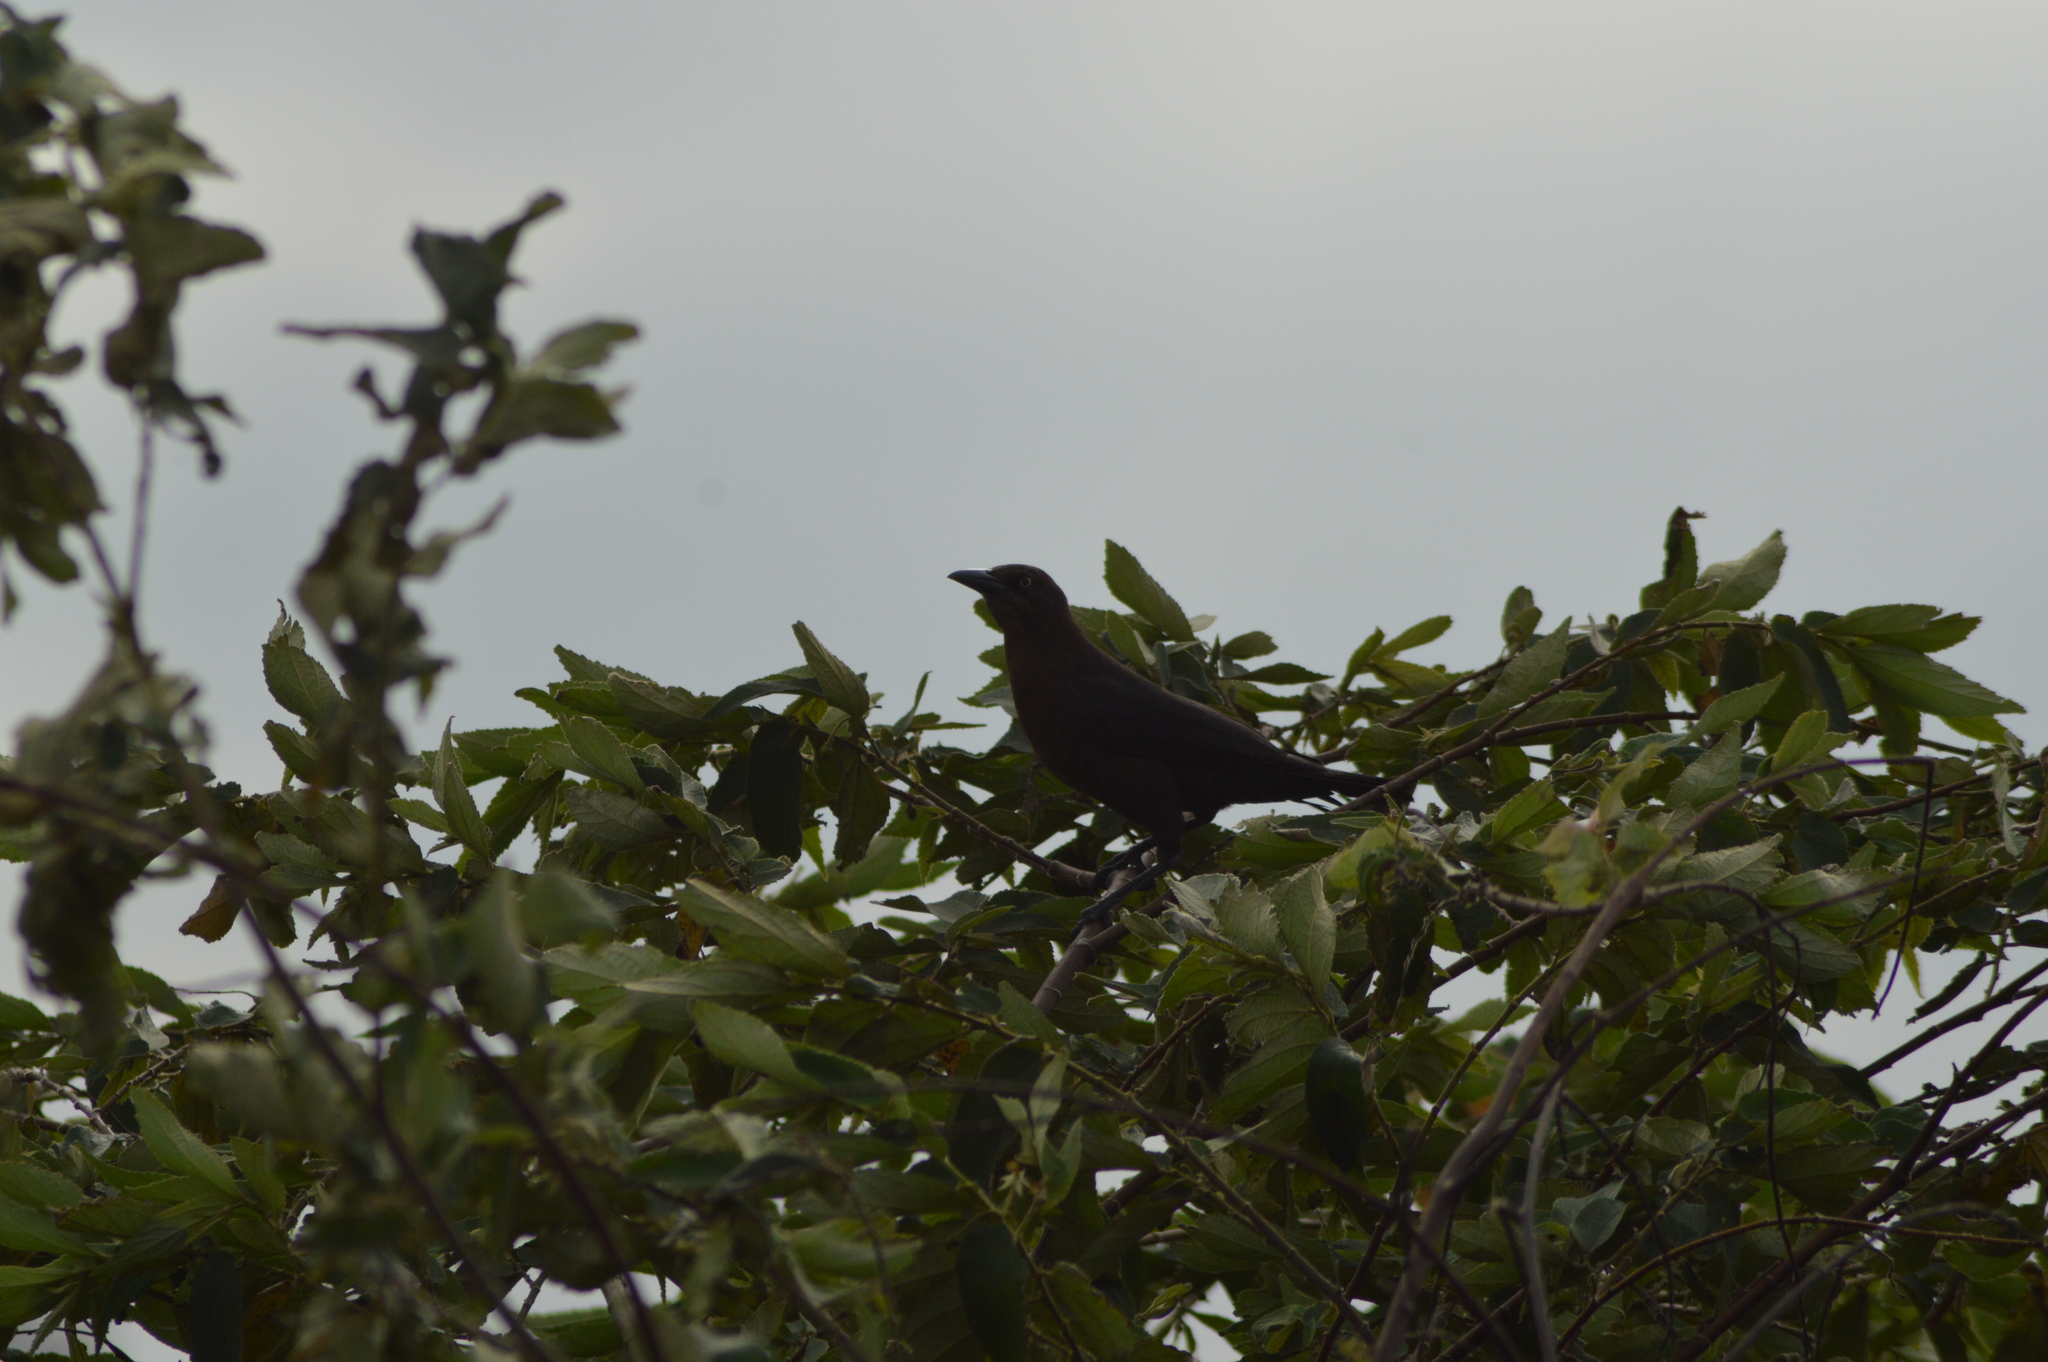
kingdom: Animalia
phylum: Chordata
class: Aves
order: Passeriformes
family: Icteridae
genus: Quiscalus
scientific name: Quiscalus mexicanus
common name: Great-tailed grackle
